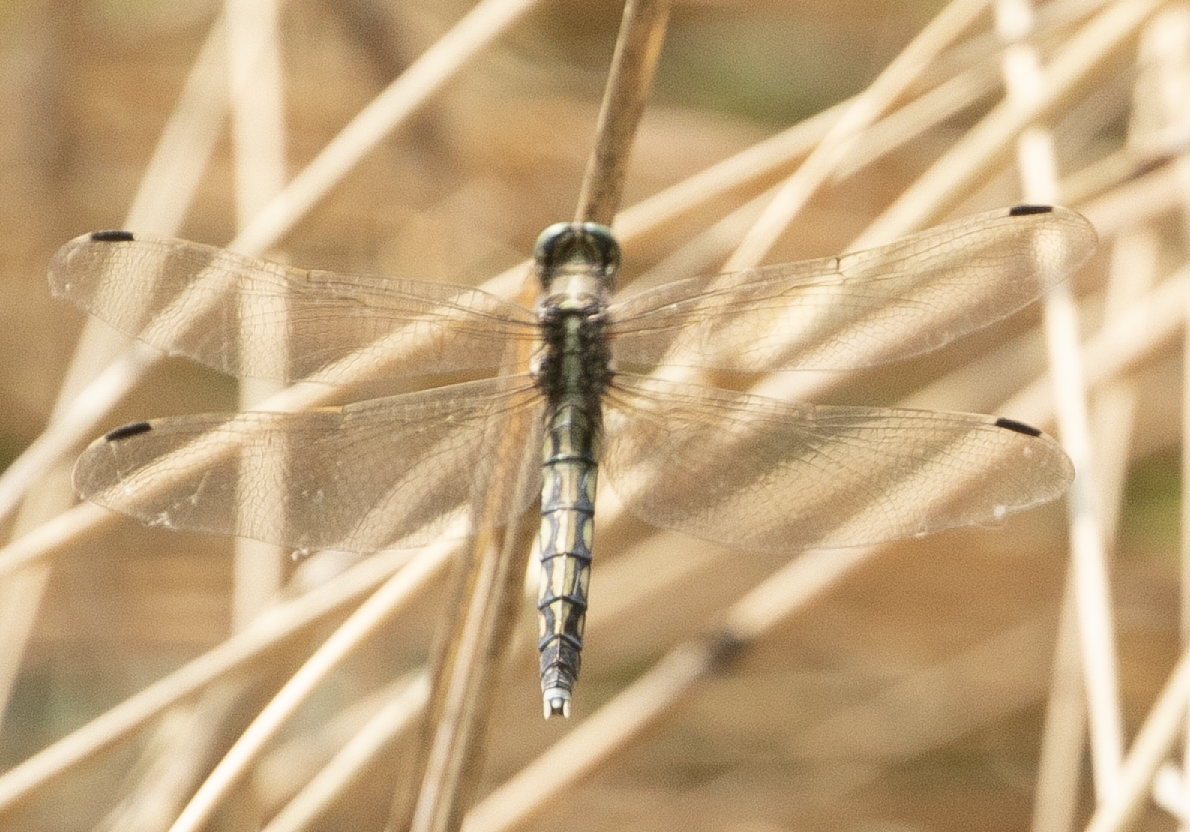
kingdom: Animalia
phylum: Arthropoda
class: Insecta
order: Odonata
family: Libellulidae
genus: Orthetrum
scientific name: Orthetrum albistylum
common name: White-tailed skimmer
